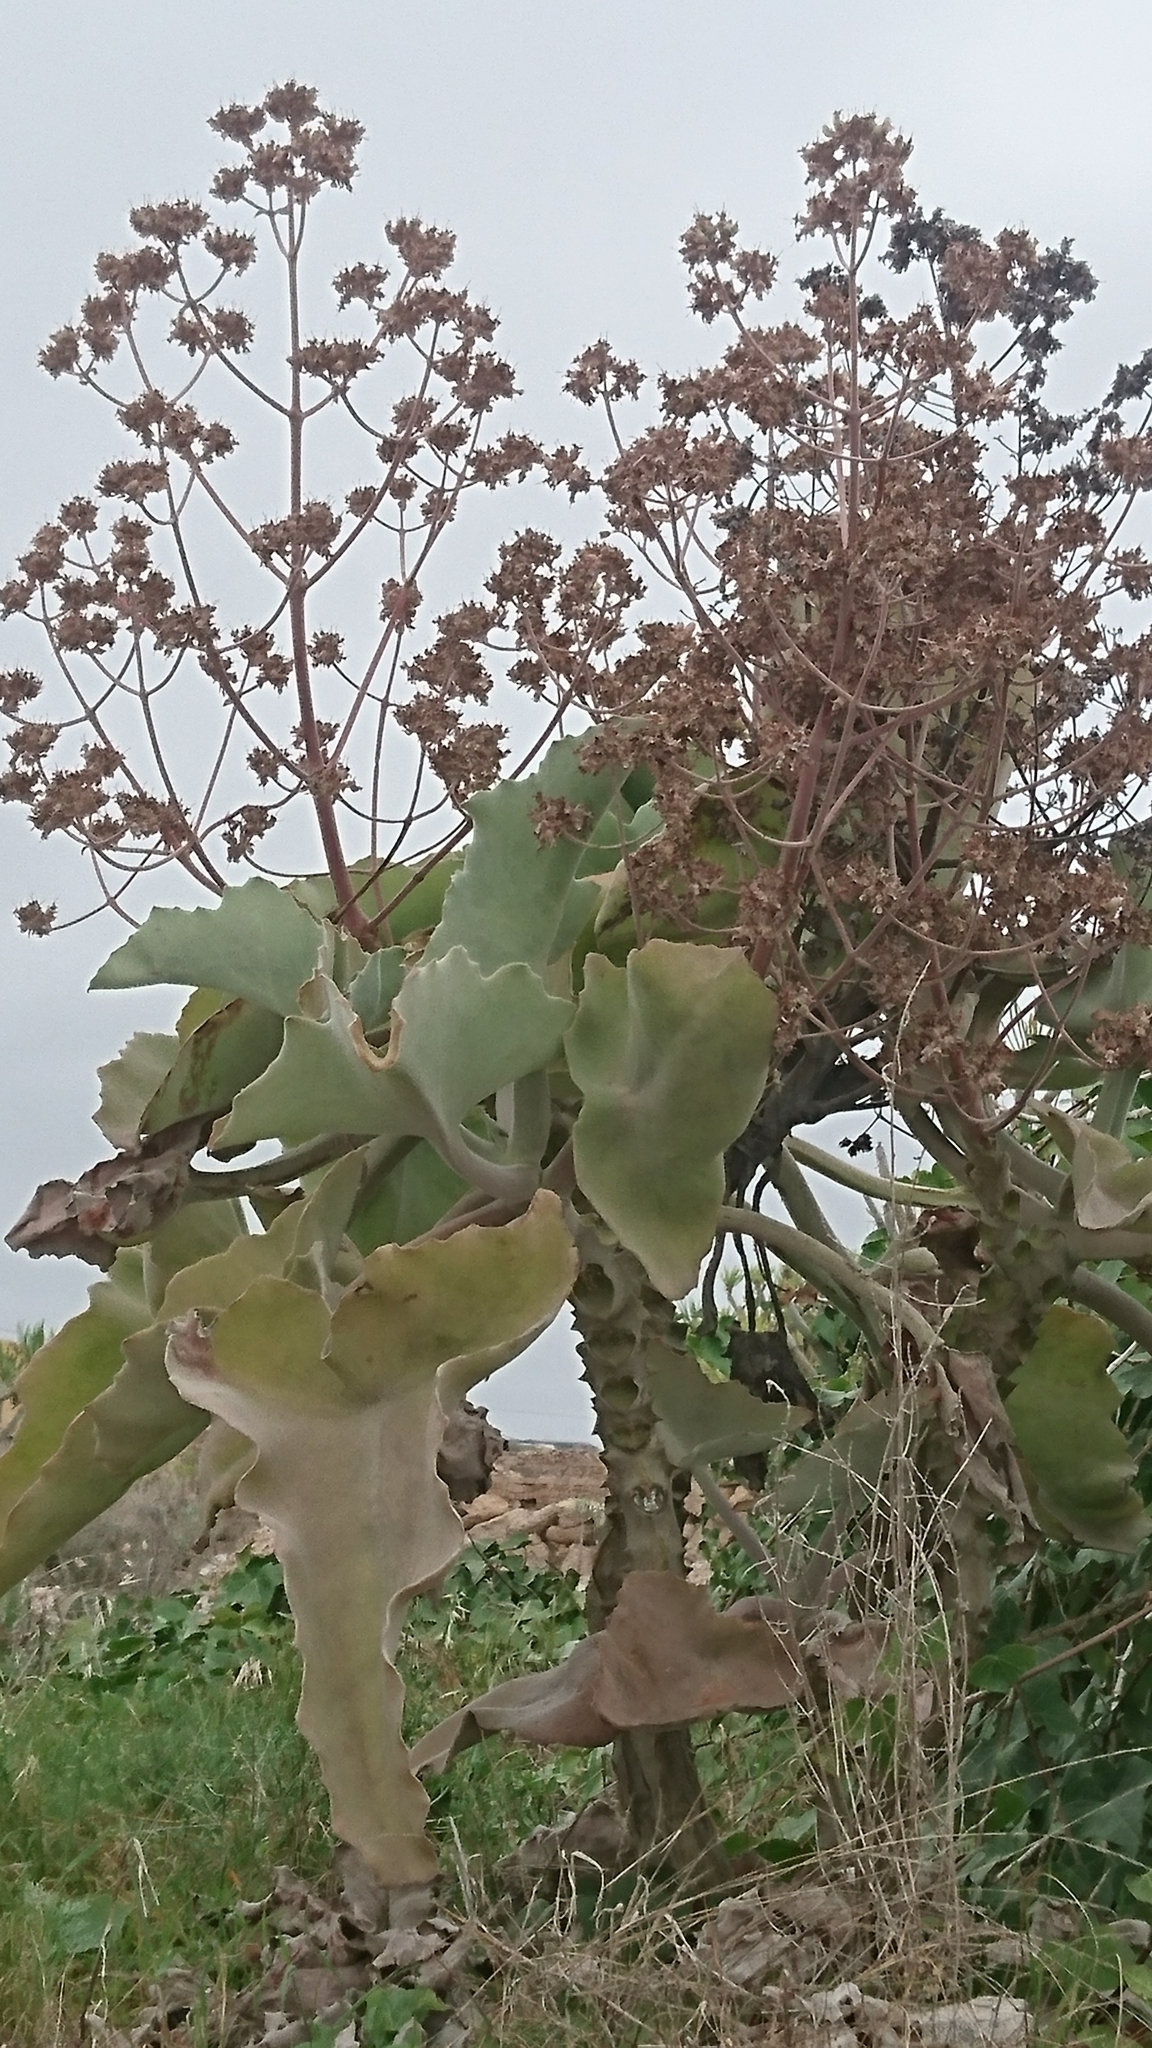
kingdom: Plantae
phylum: Tracheophyta
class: Magnoliopsida
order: Saxifragales
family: Crassulaceae
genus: Kalanchoe
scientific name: Kalanchoe beharensis
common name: Velvet leaf
